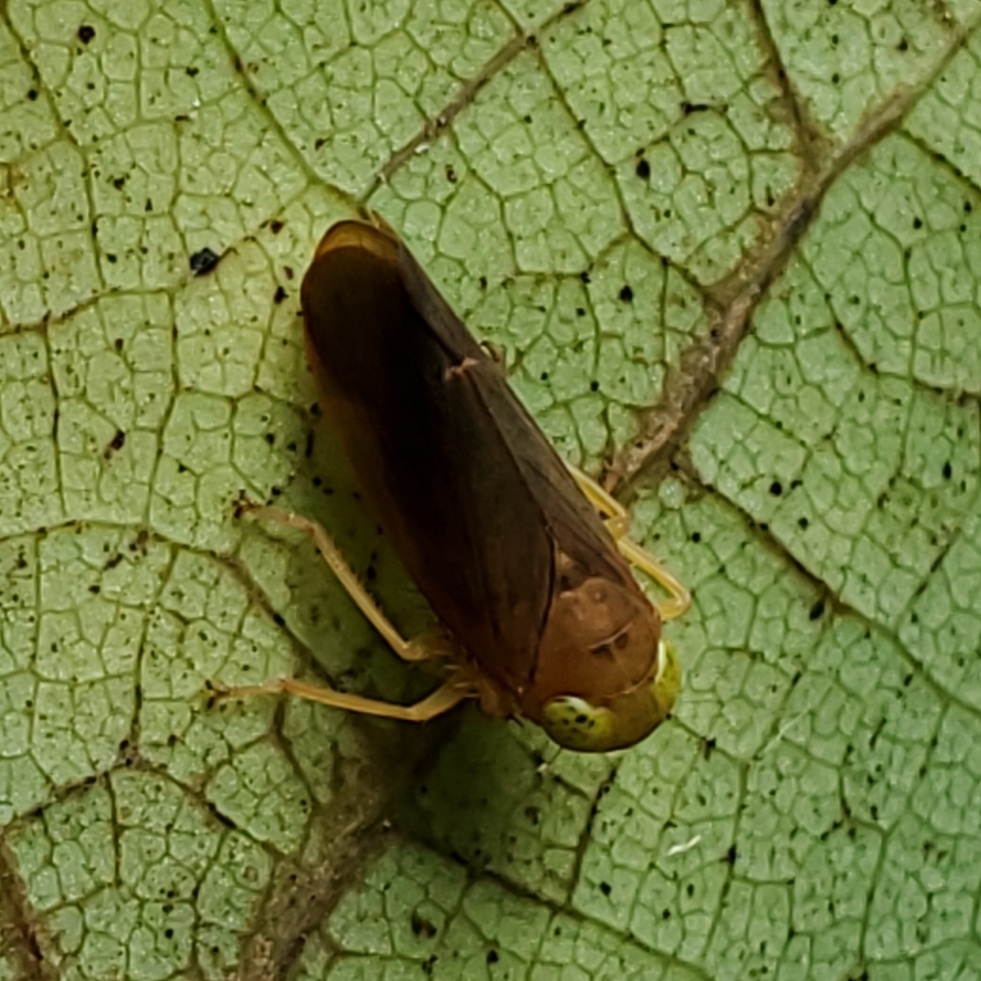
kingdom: Animalia
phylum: Arthropoda
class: Insecta
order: Hemiptera
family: Cicadellidae
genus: Jikradia
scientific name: Jikradia olitoria
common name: Coppery leafhopper
